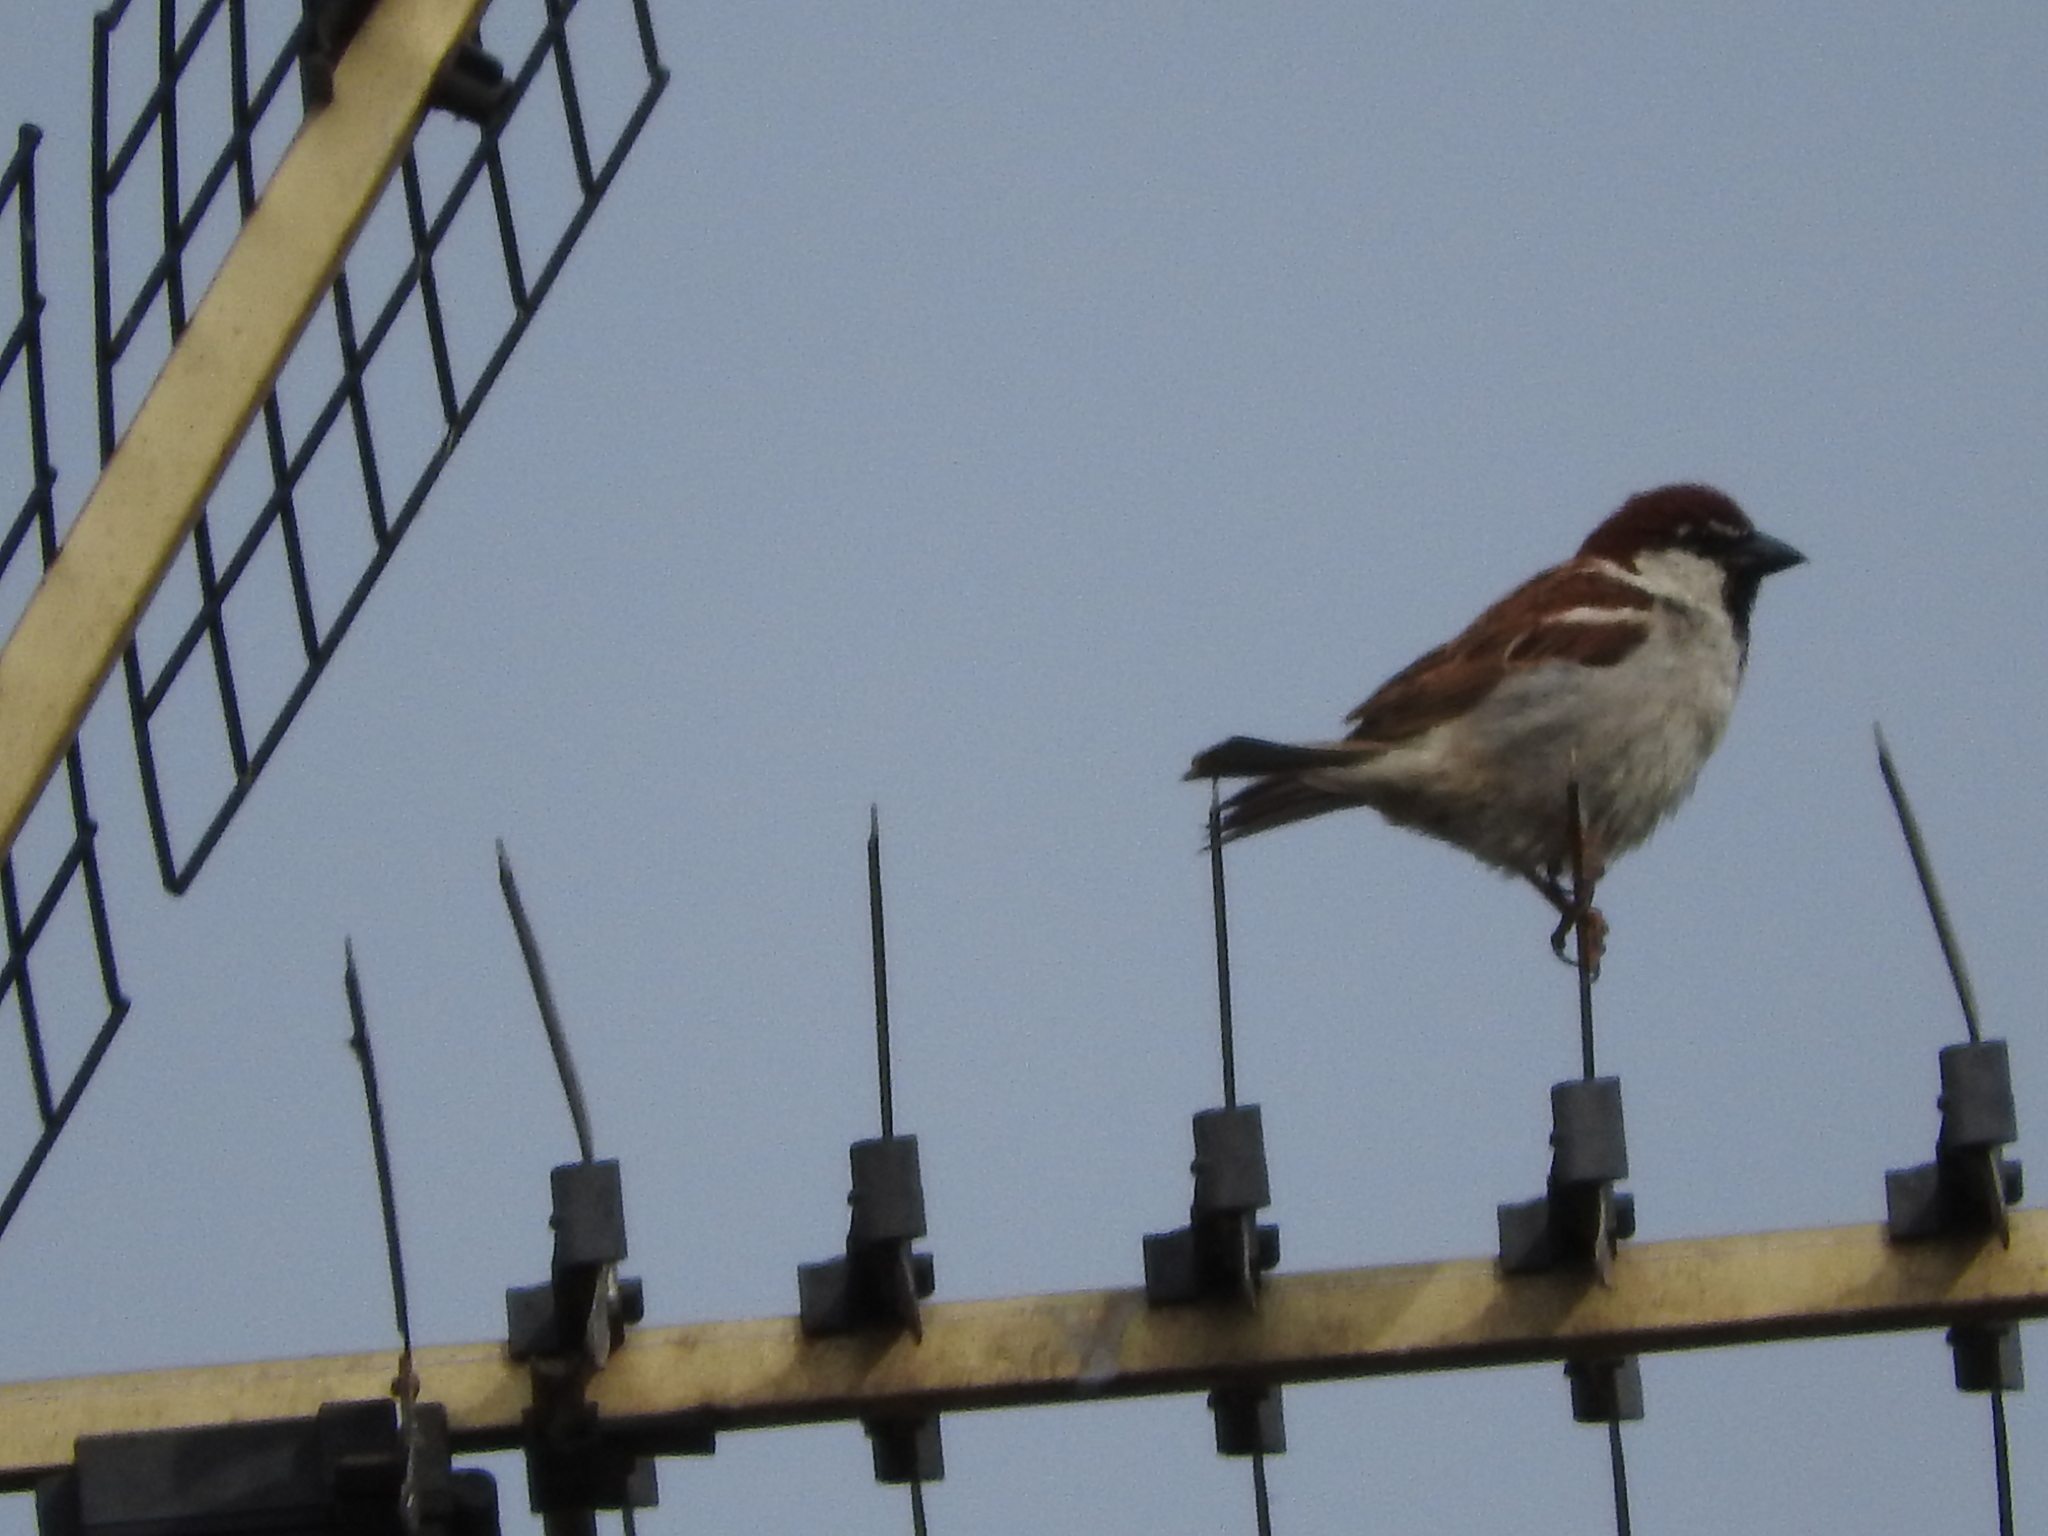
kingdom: Animalia
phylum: Chordata
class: Aves
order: Passeriformes
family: Passeridae
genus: Passer
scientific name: Passer italiae
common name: Italian sparrow
